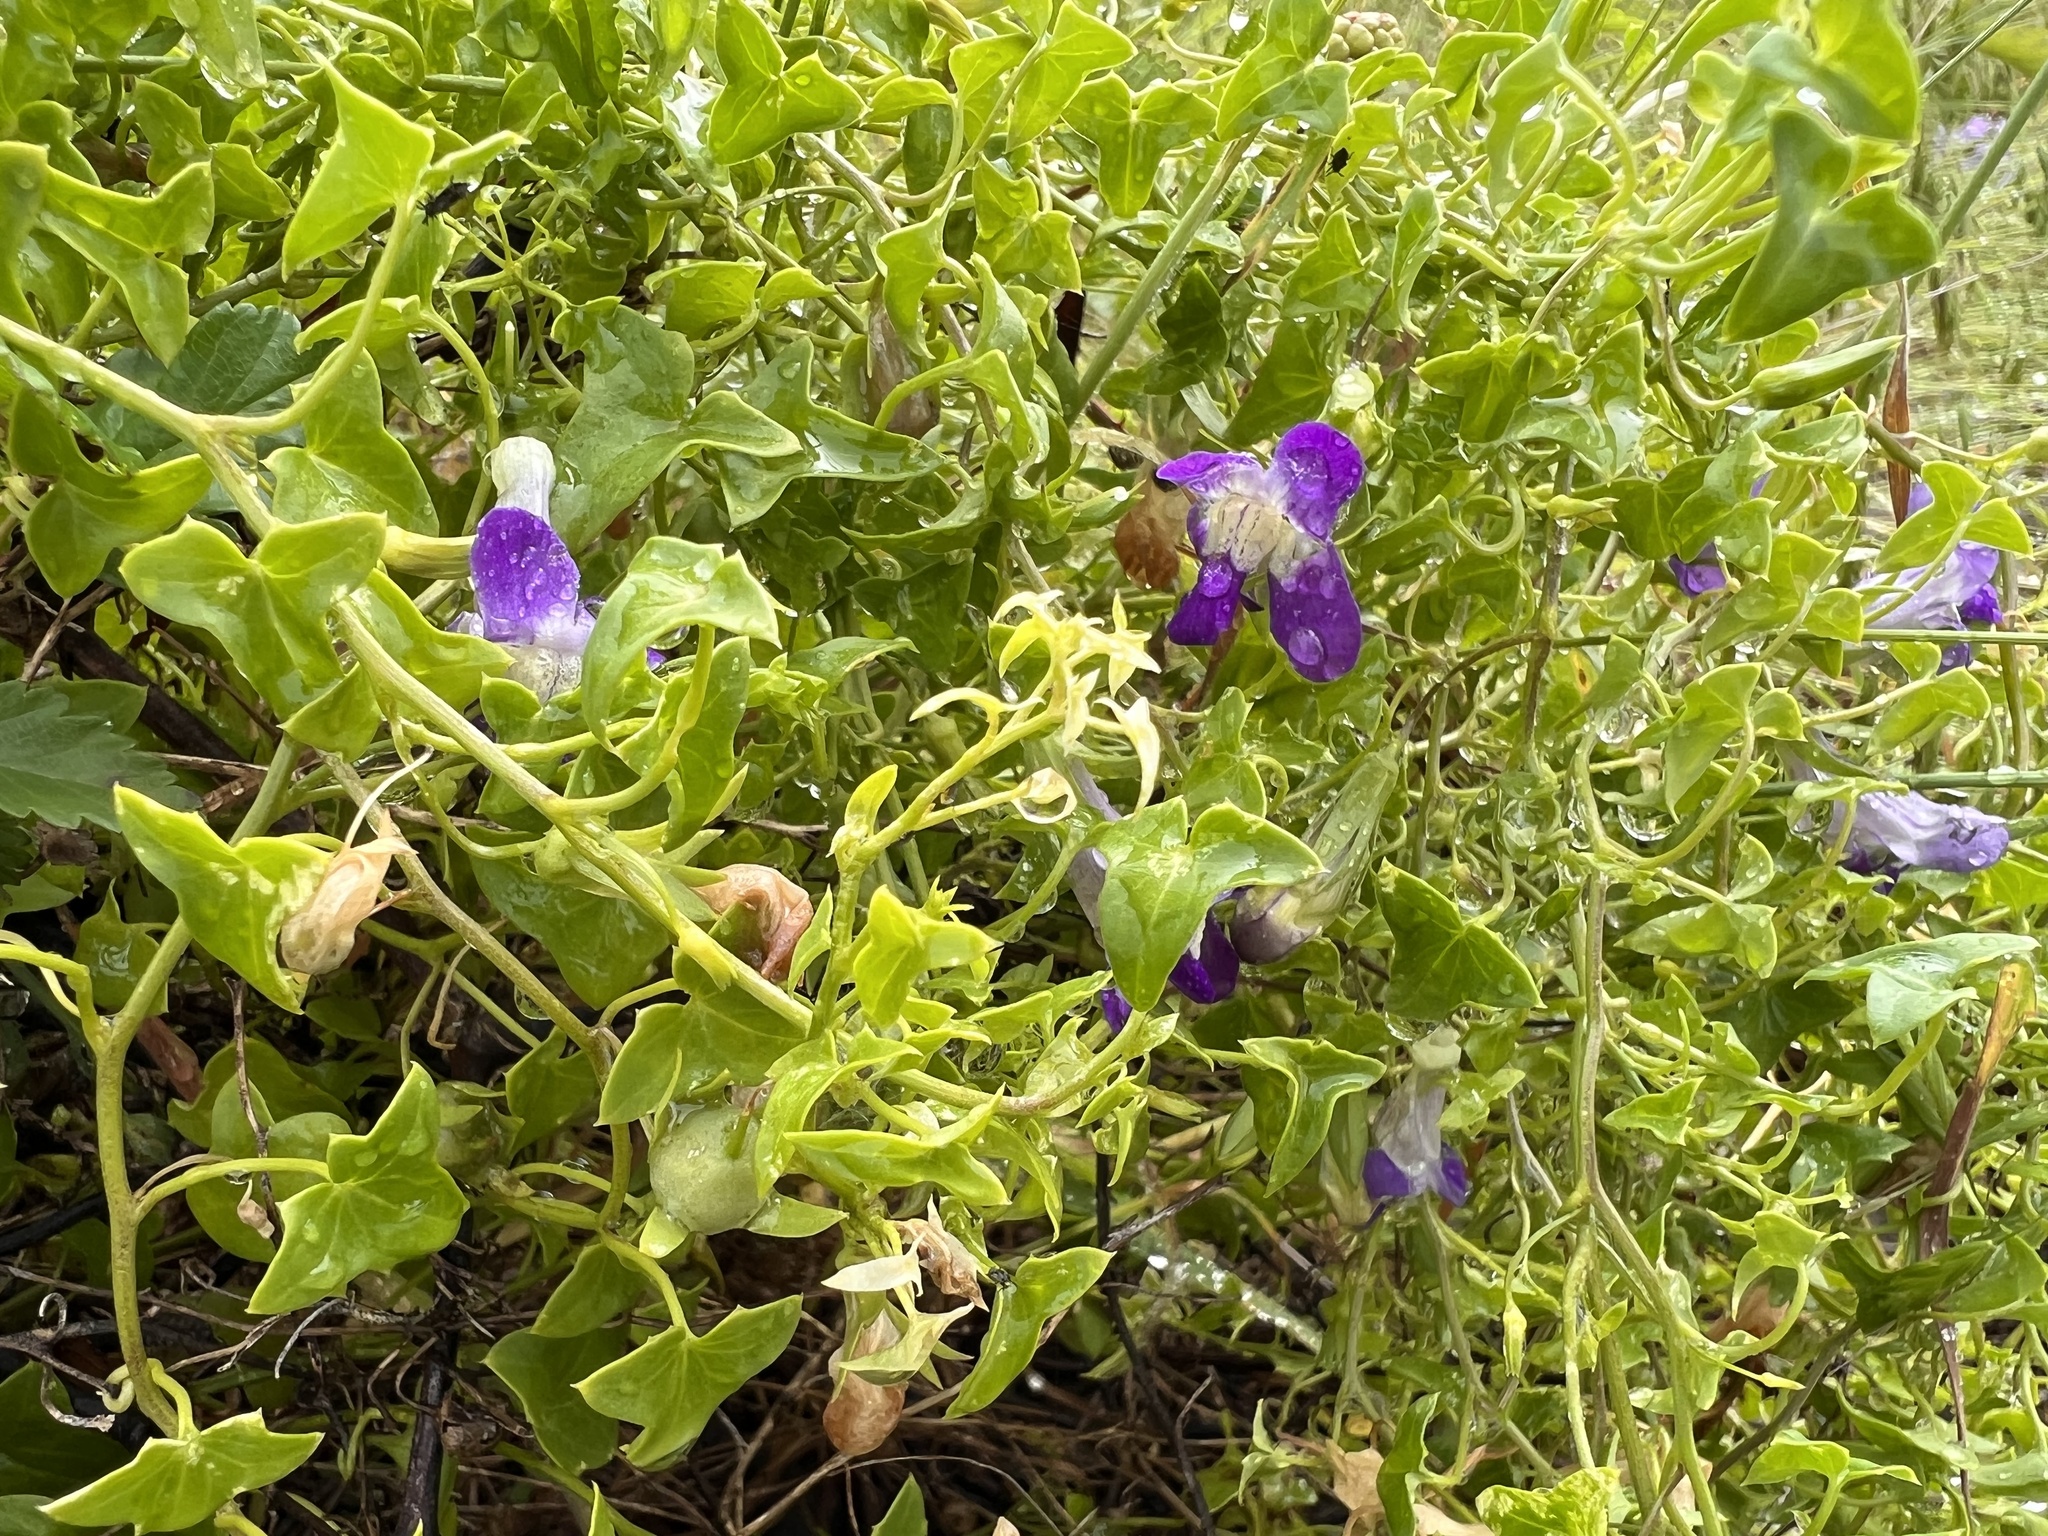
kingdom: Plantae
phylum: Tracheophyta
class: Magnoliopsida
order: Lamiales
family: Plantaginaceae
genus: Maurandella
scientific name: Maurandella antirrhiniflora
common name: Violet twining-snapdragon
